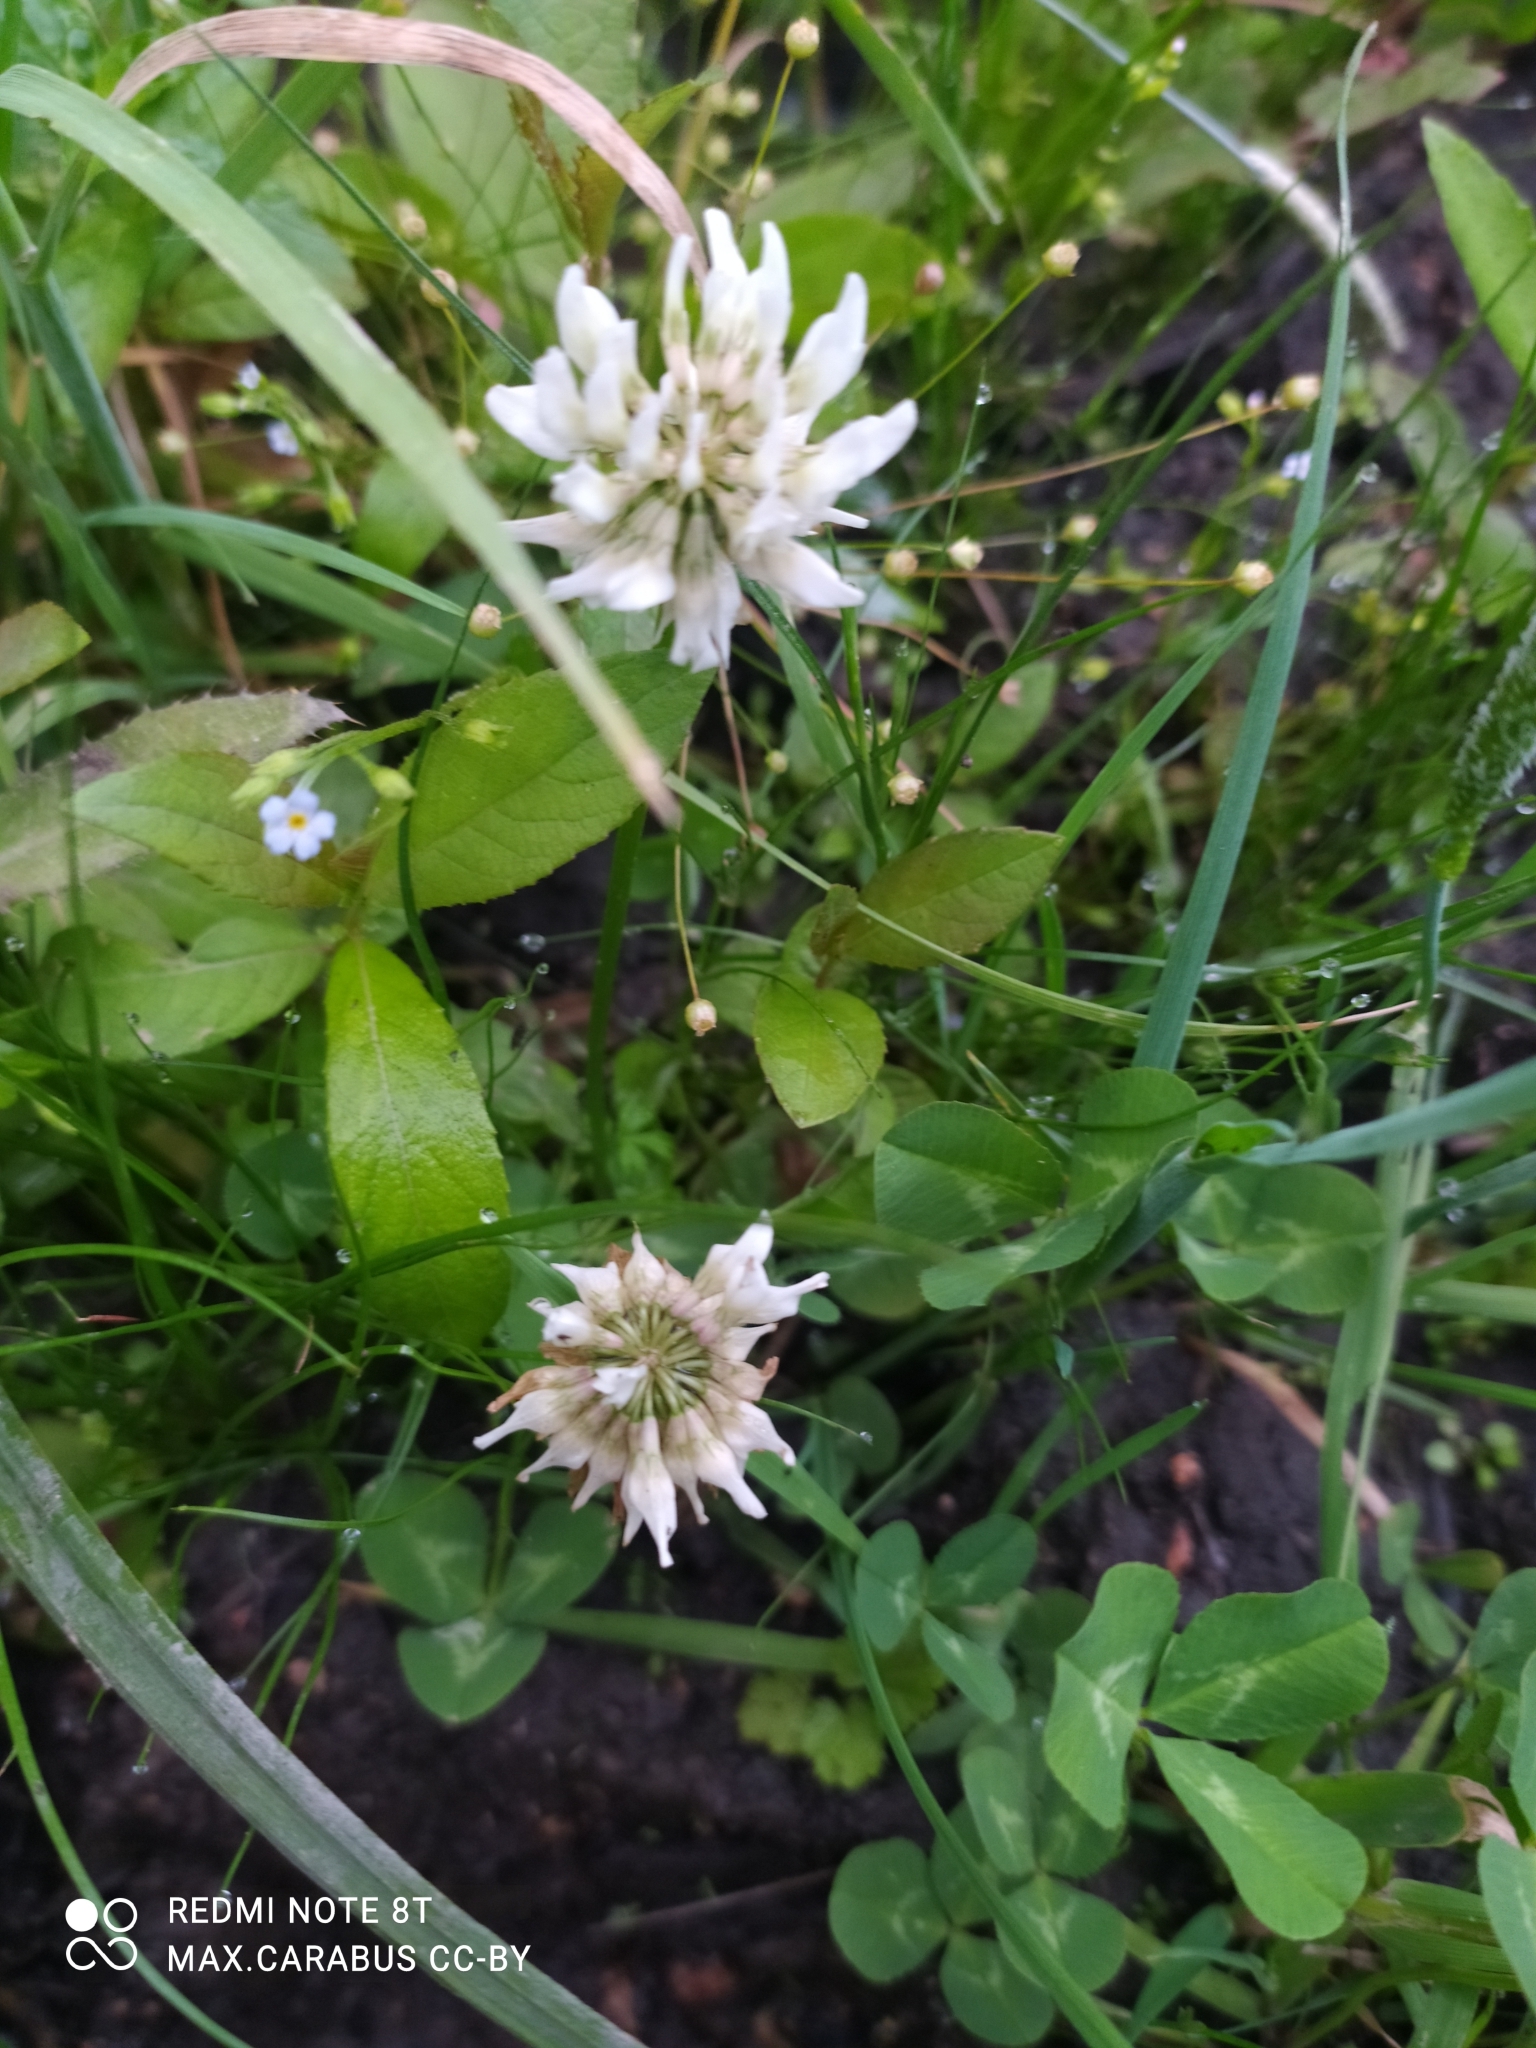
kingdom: Plantae
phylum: Tracheophyta
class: Magnoliopsida
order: Fabales
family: Fabaceae
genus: Trifolium
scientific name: Trifolium repens
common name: White clover
